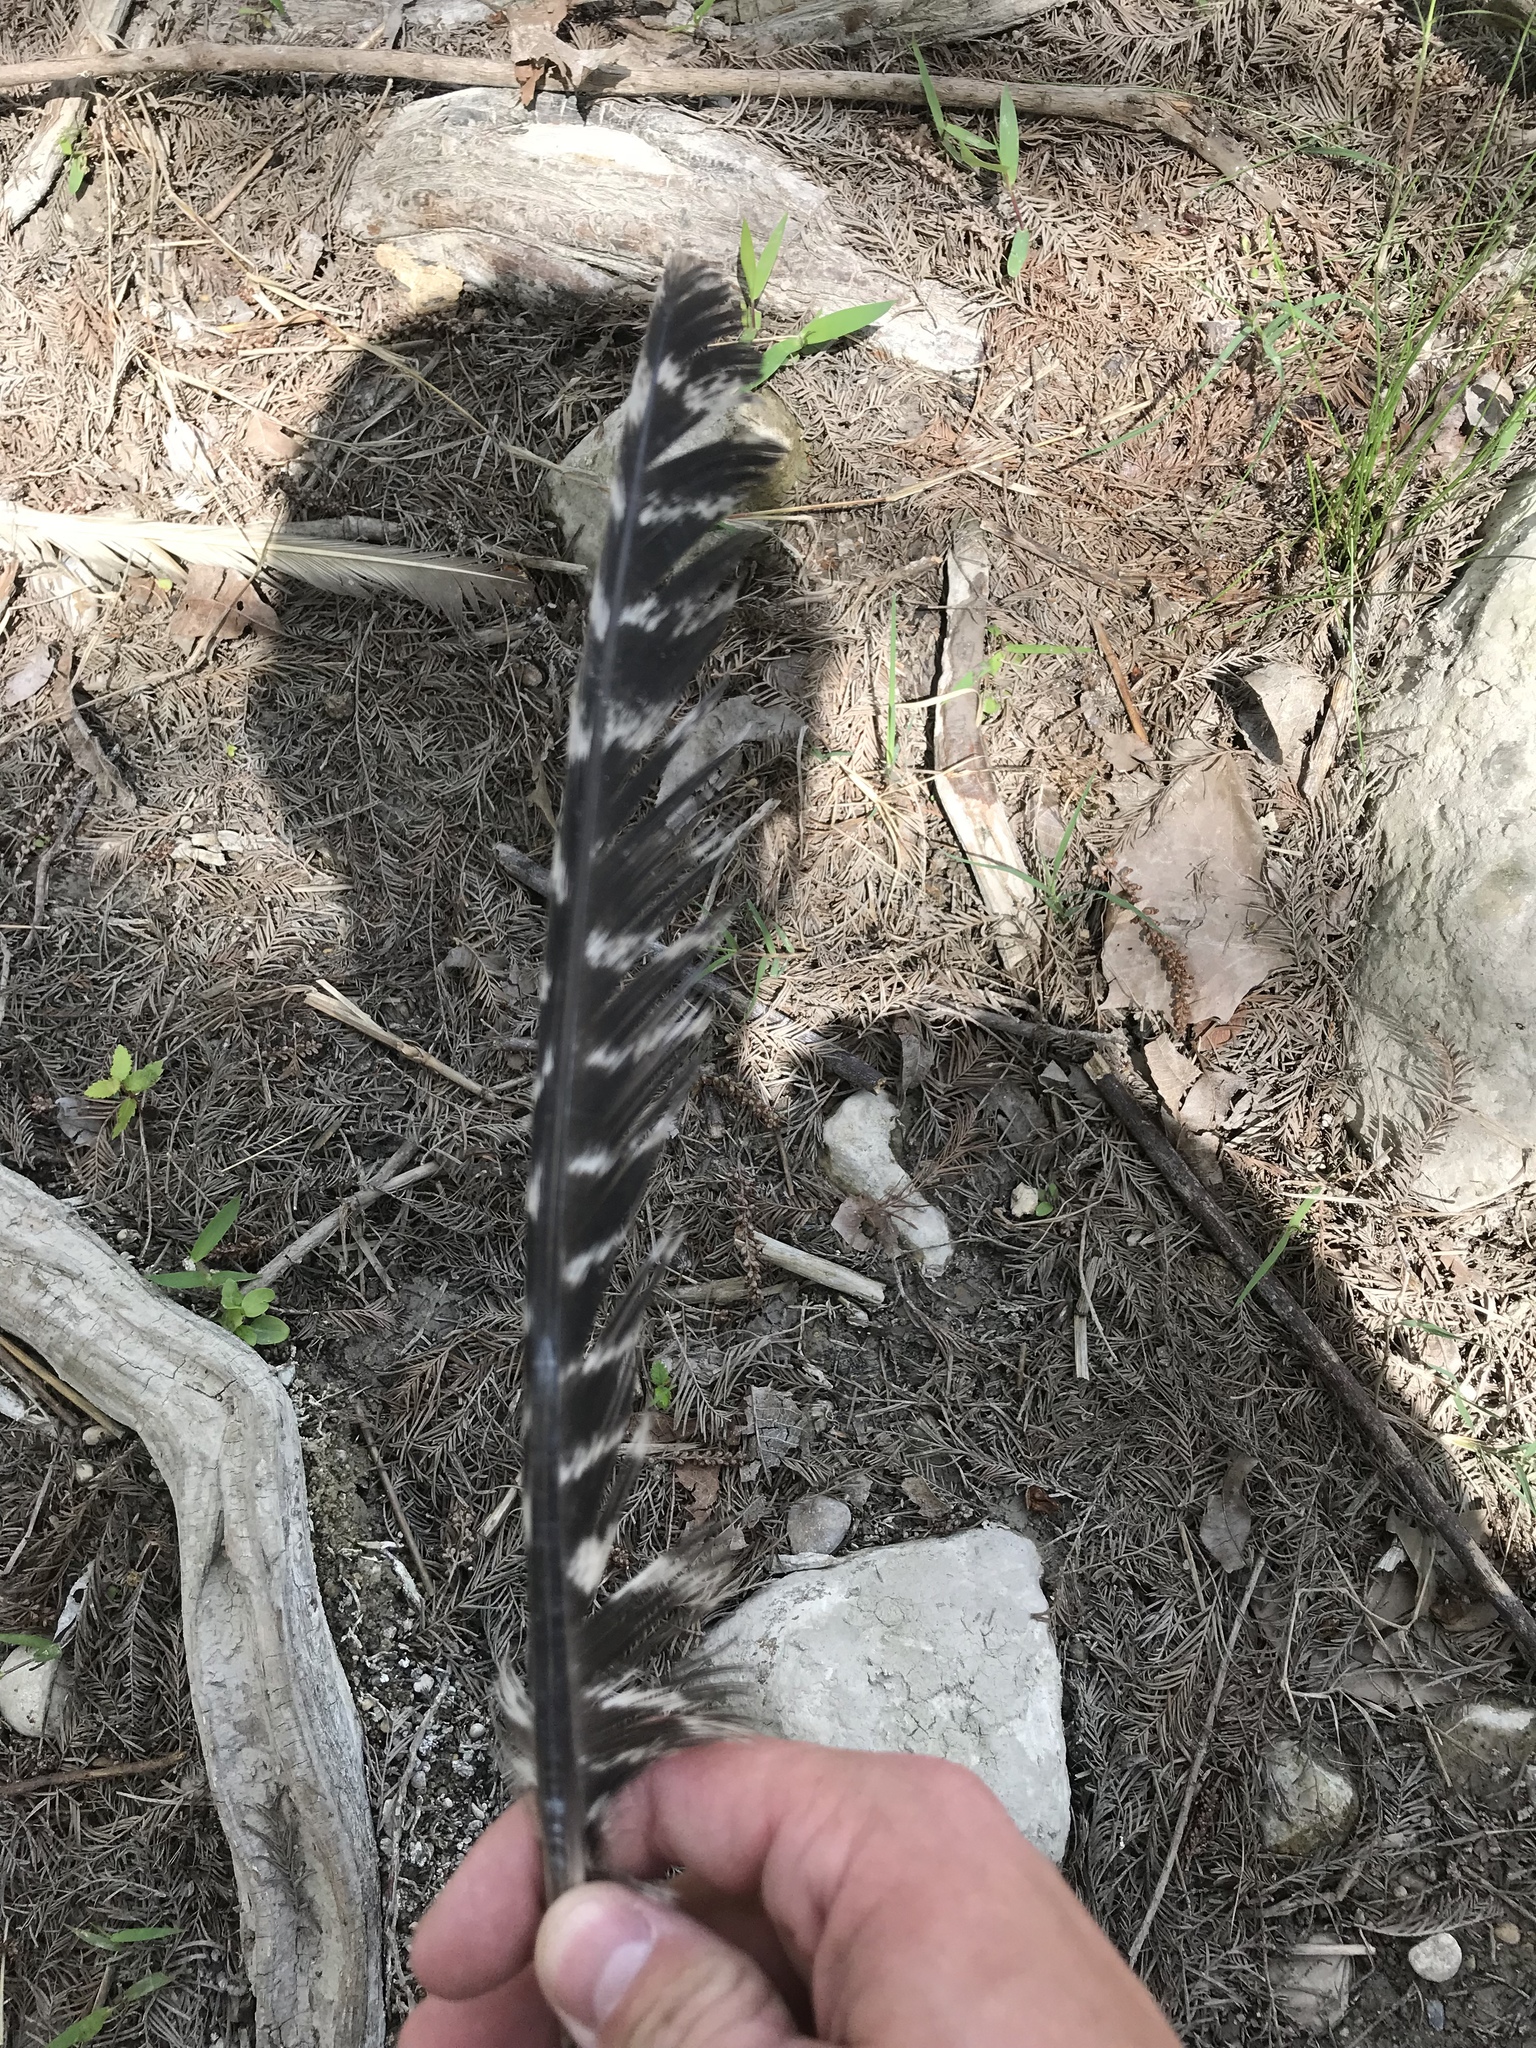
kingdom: Animalia
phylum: Chordata
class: Aves
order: Galliformes
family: Phasianidae
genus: Meleagris
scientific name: Meleagris gallopavo
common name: Wild turkey
